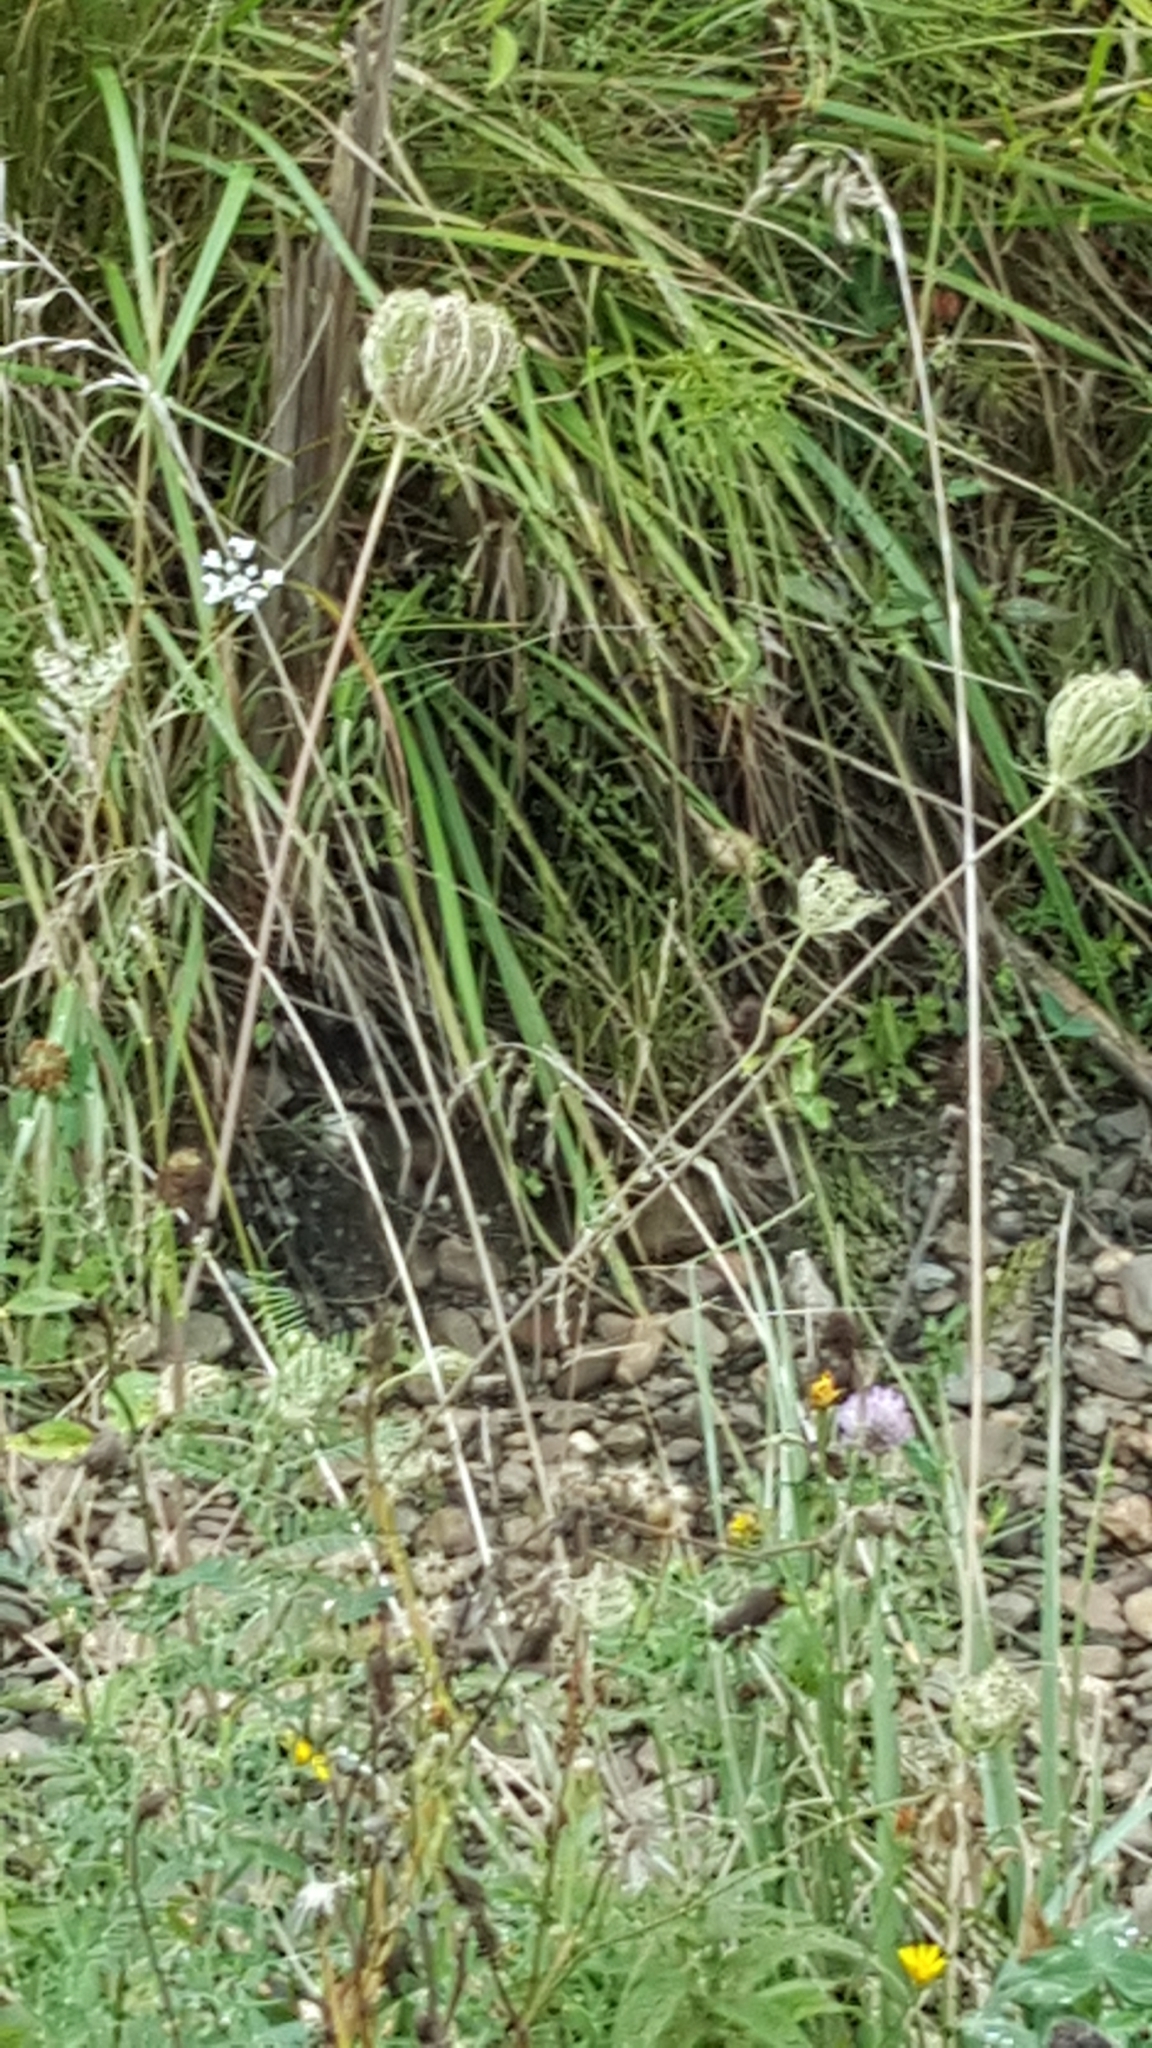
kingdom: Plantae
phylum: Tracheophyta
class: Magnoliopsida
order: Apiales
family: Apiaceae
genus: Daucus
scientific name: Daucus carota
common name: Wild carrot
